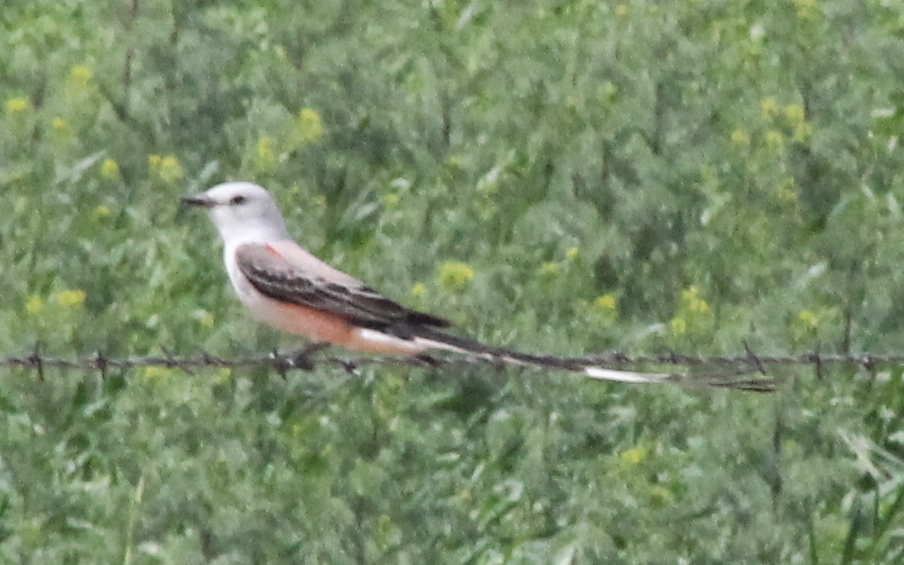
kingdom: Animalia
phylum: Chordata
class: Aves
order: Passeriformes
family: Tyrannidae
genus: Tyrannus
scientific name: Tyrannus forficatus
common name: Scissor-tailed flycatcher
